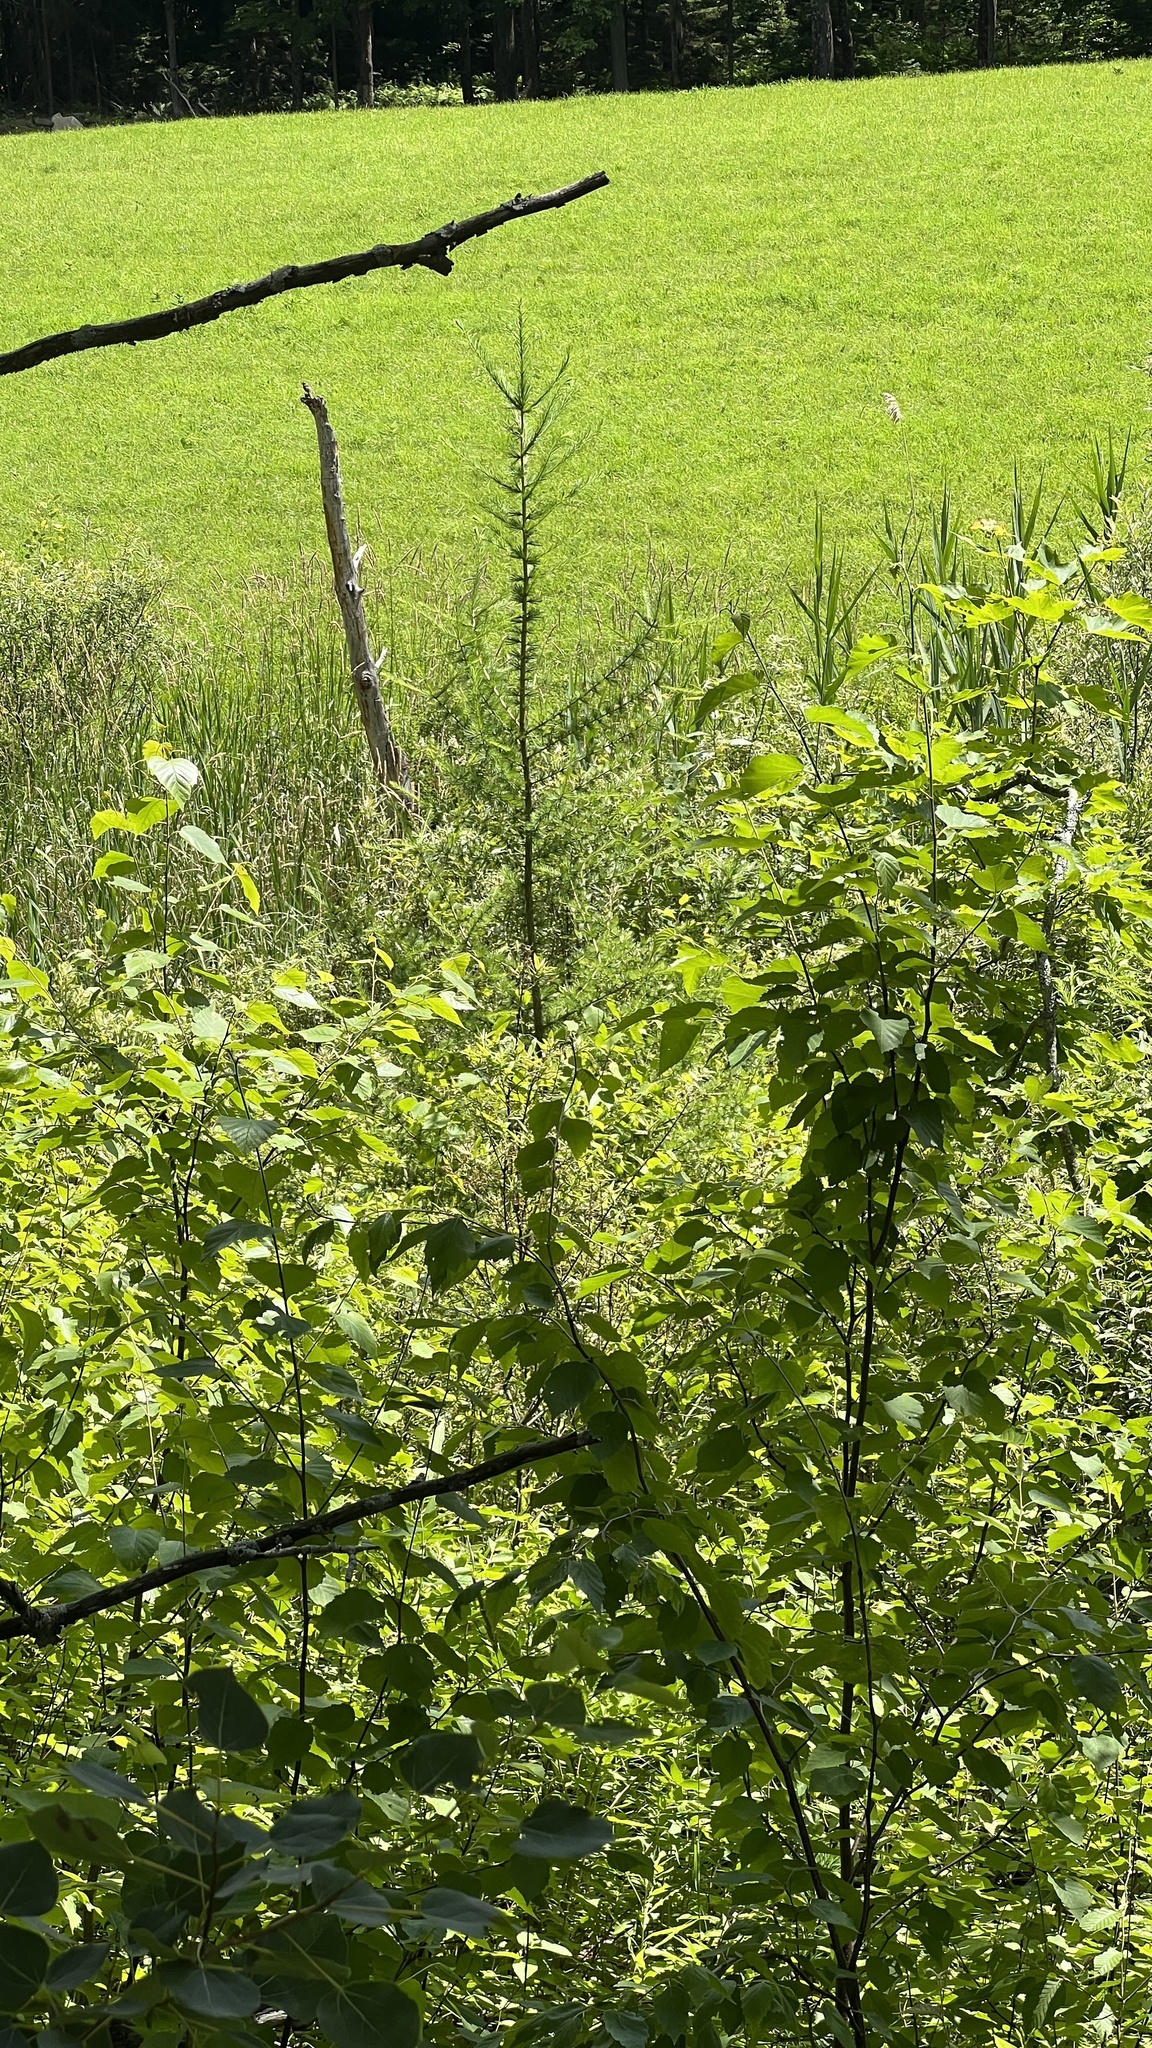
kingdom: Plantae
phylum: Tracheophyta
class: Pinopsida
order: Pinales
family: Pinaceae
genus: Larix
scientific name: Larix laricina
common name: American larch
